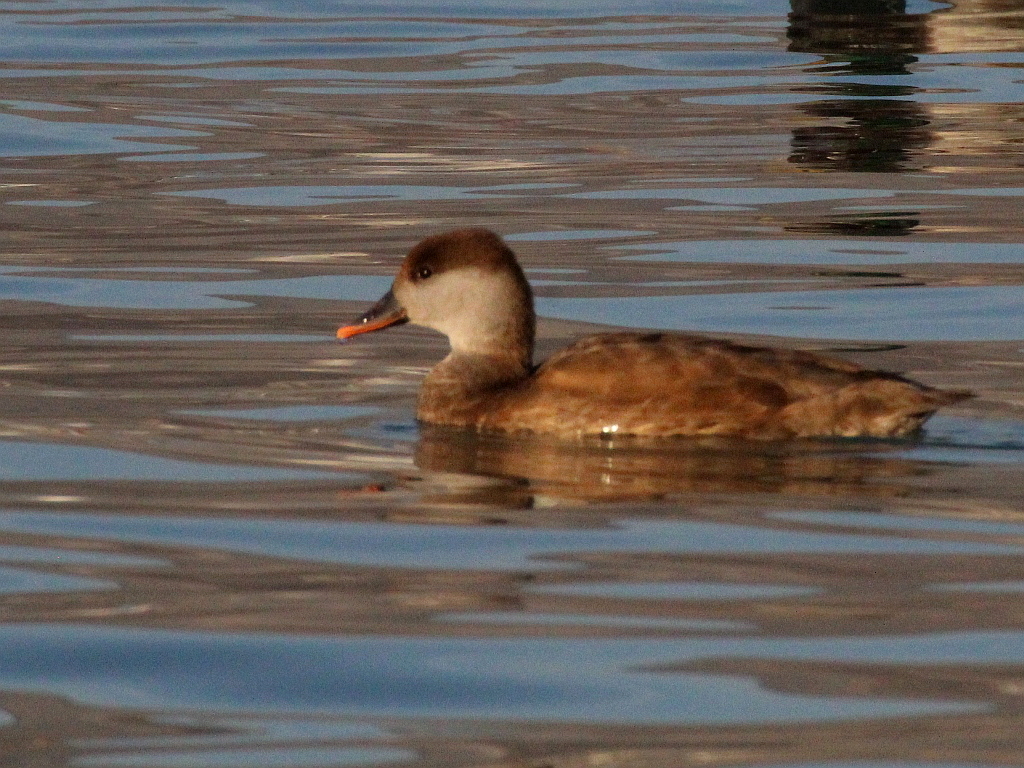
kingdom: Animalia
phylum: Chordata
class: Aves
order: Anseriformes
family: Anatidae
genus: Netta
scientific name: Netta rufina
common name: Red-crested pochard
